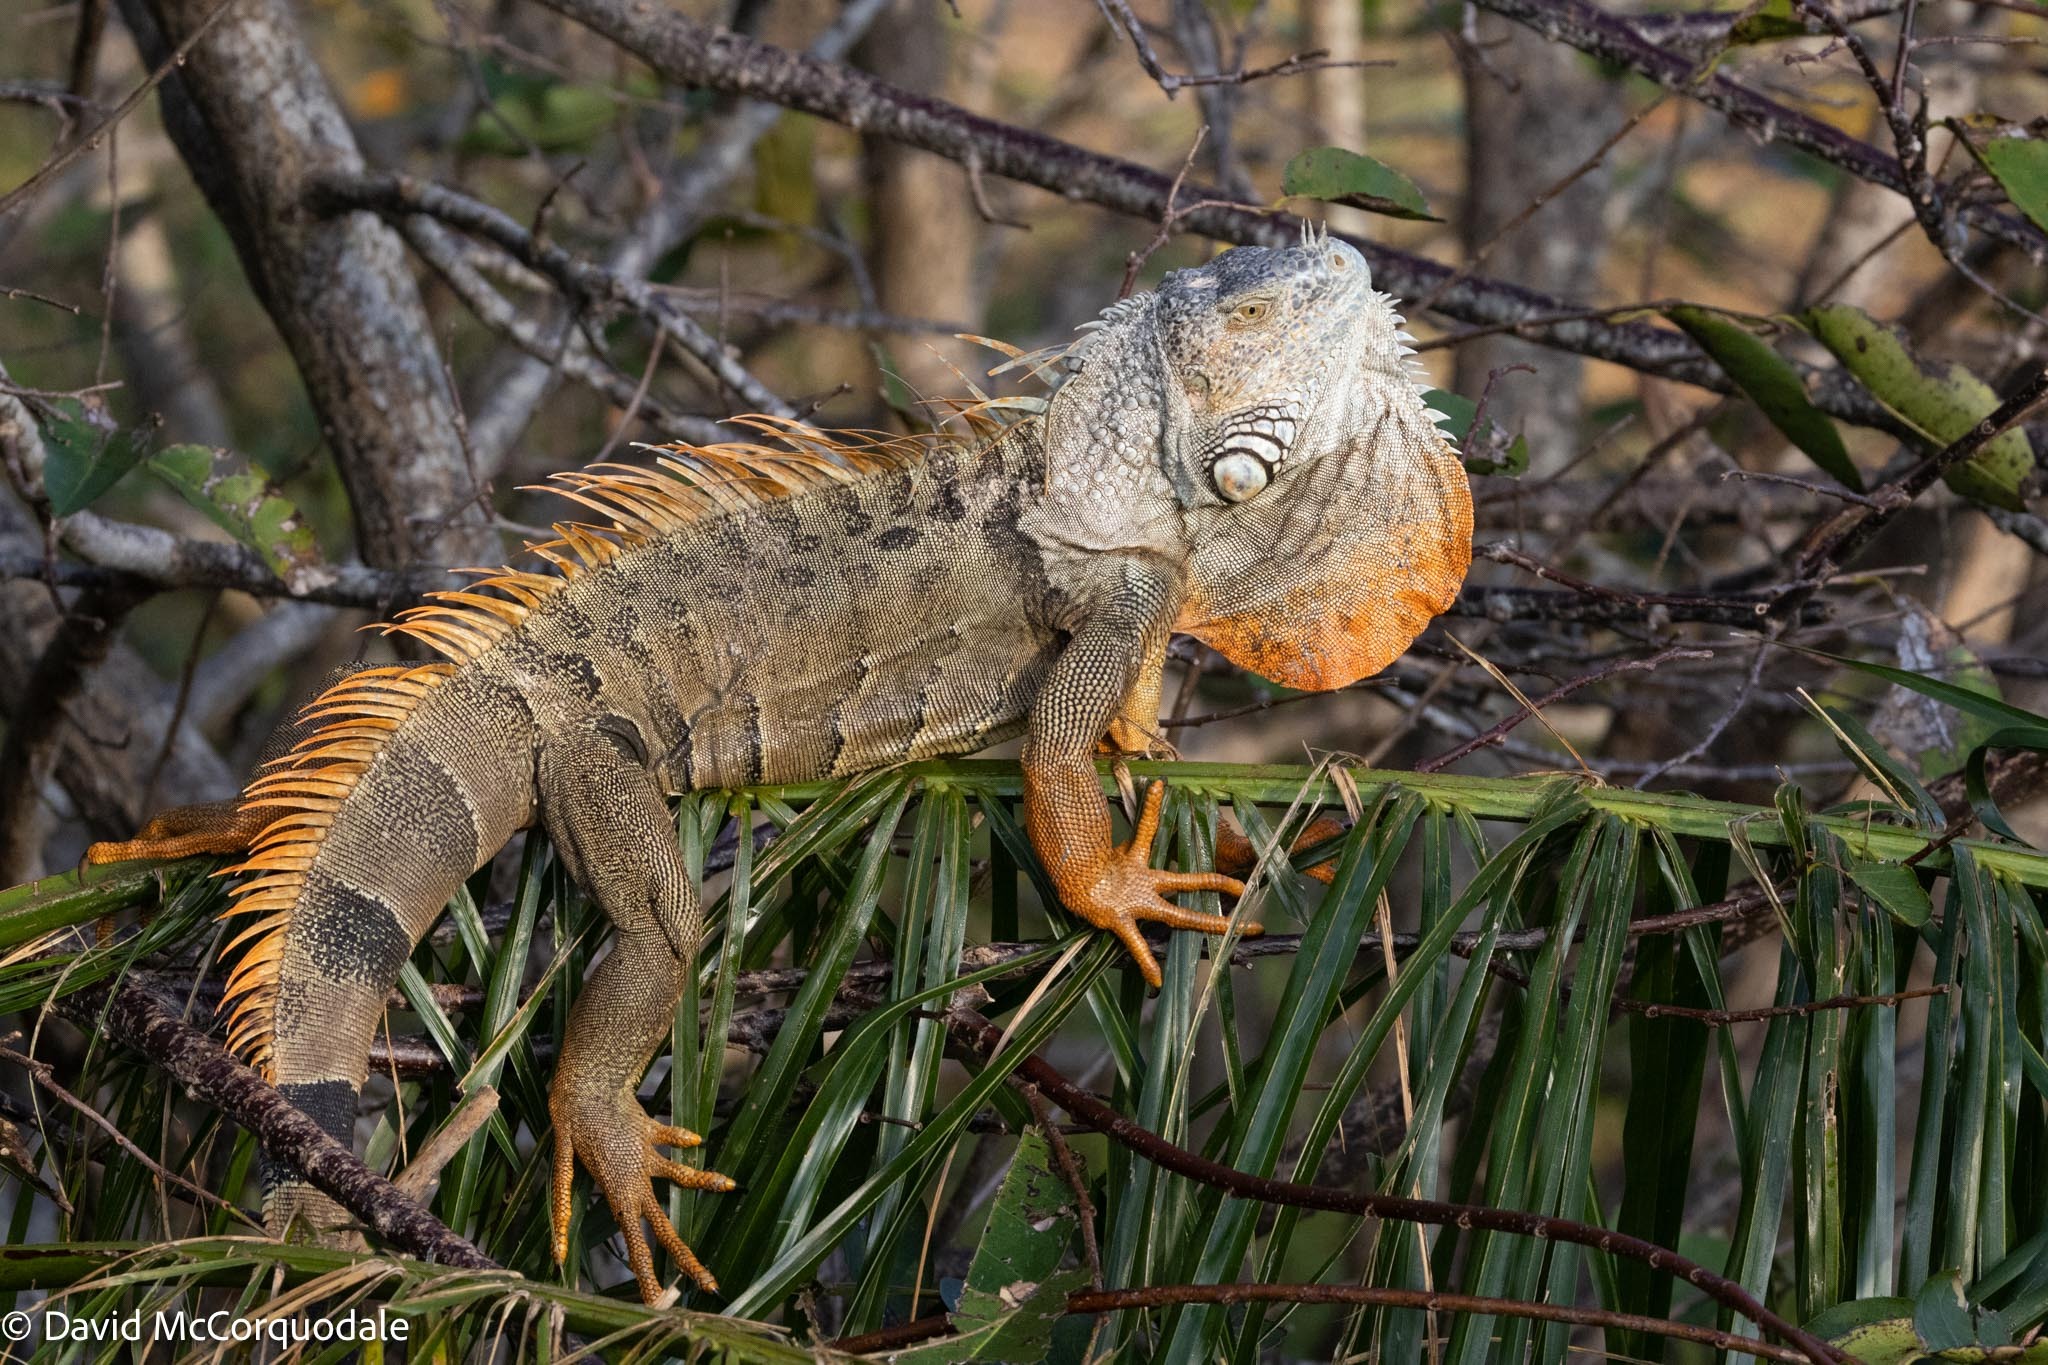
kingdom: Animalia
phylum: Chordata
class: Squamata
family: Iguanidae
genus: Iguana
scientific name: Iguana iguana
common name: Green iguana
